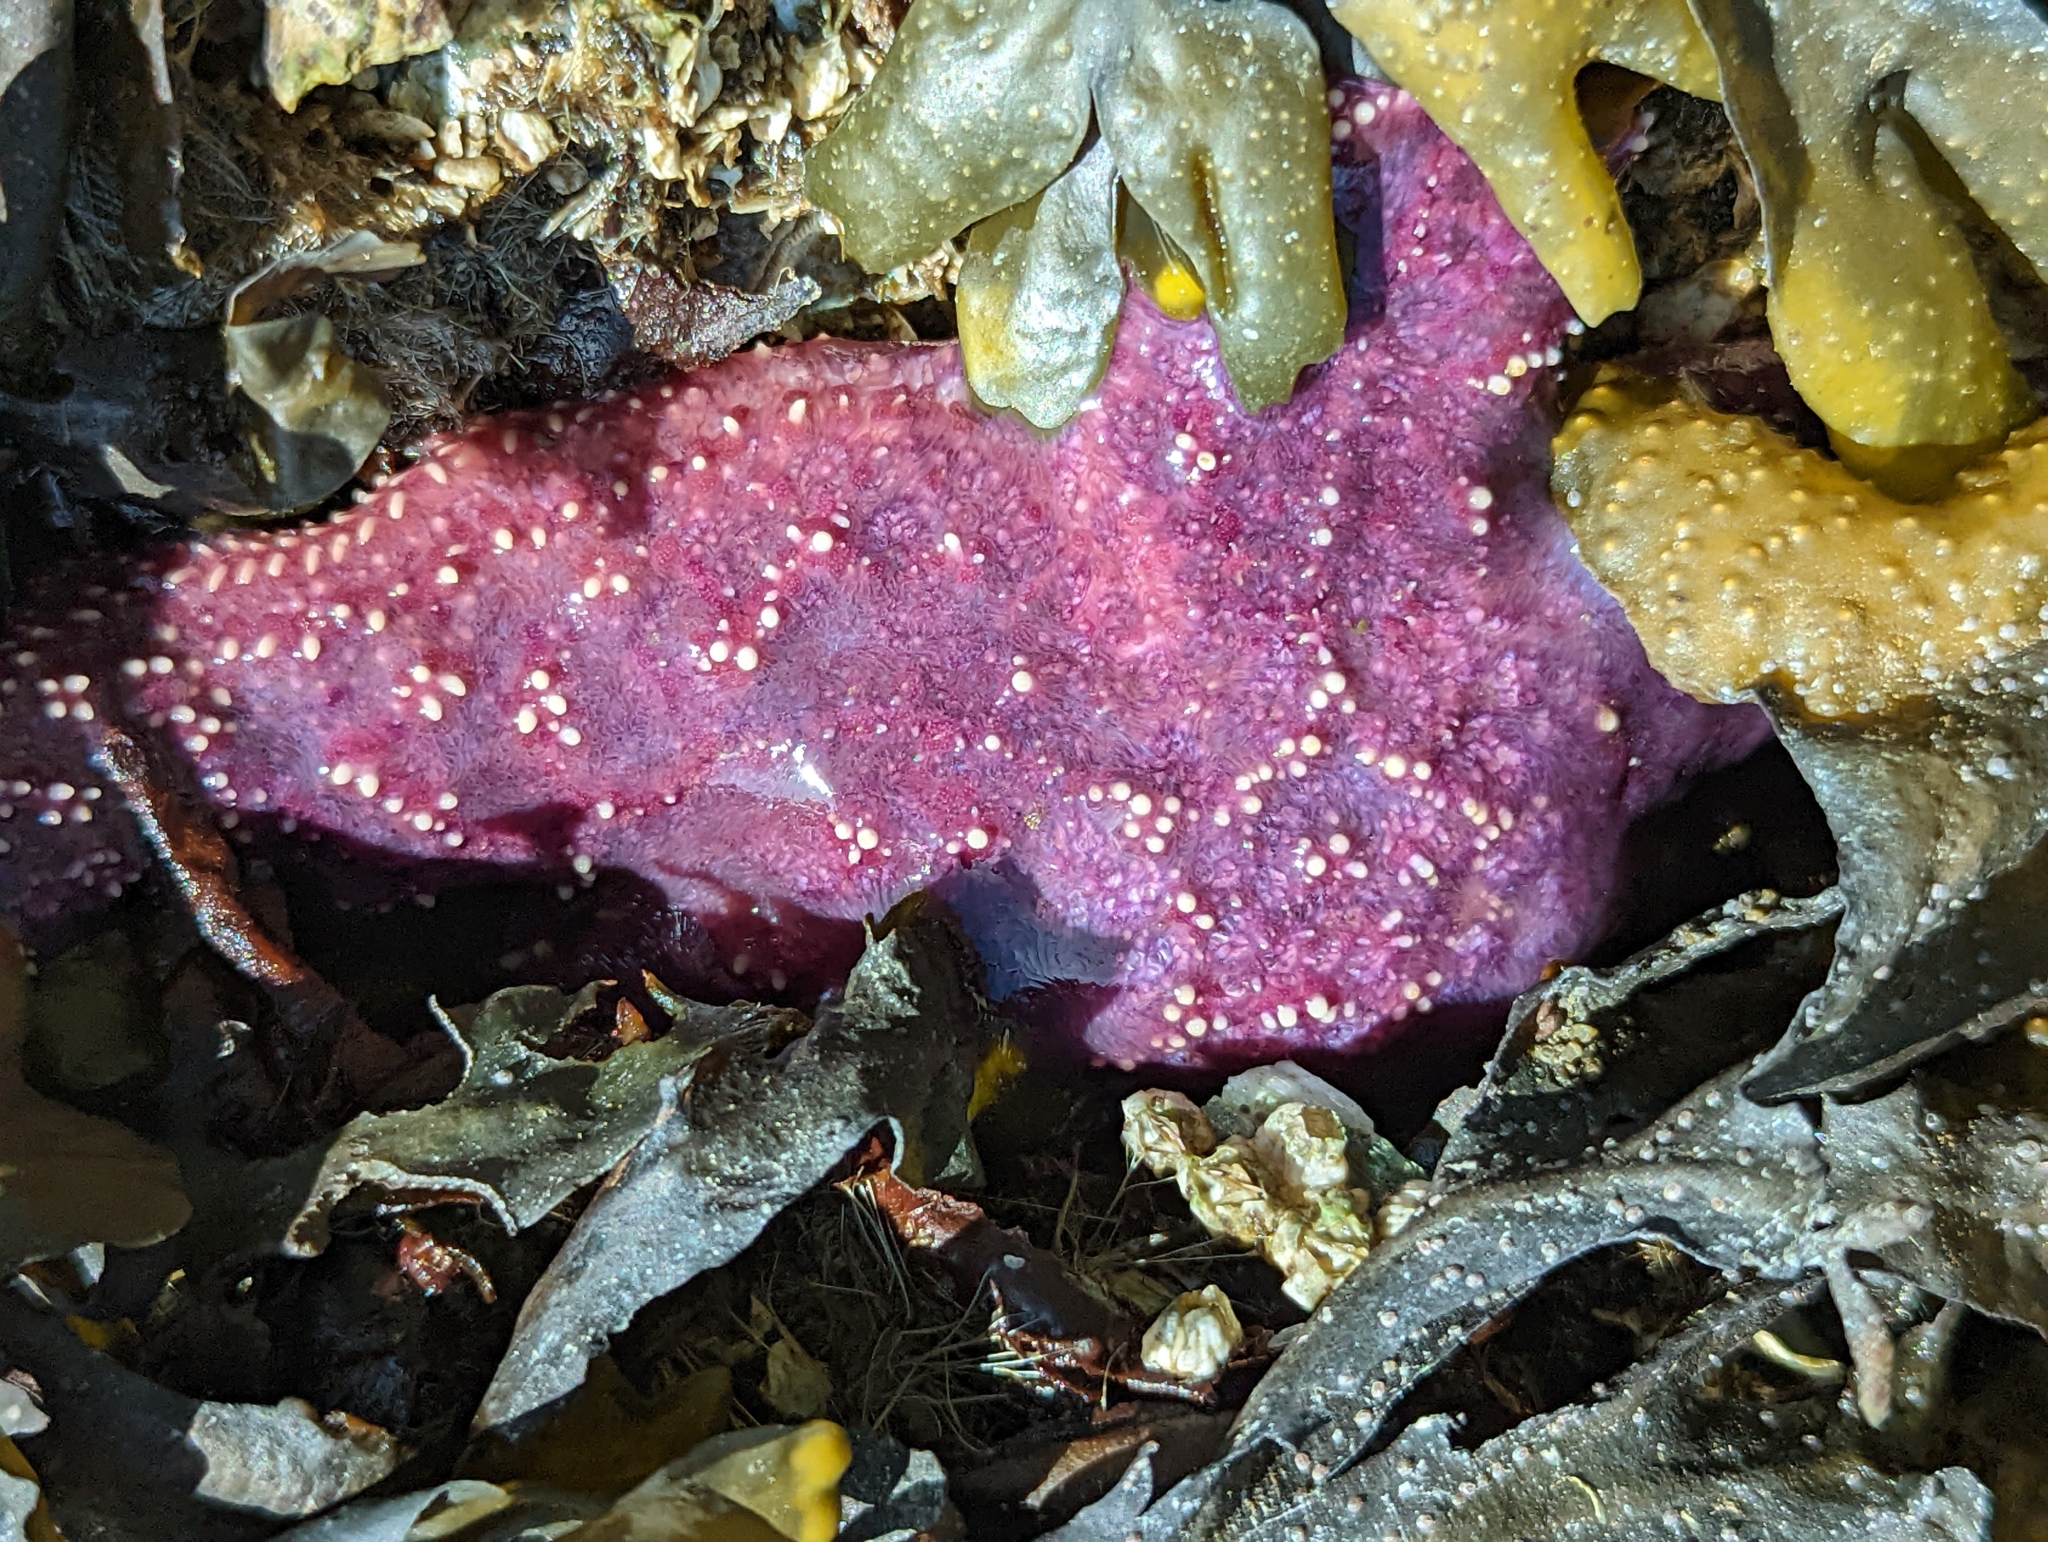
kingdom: Animalia
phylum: Echinodermata
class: Asteroidea
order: Forcipulatida
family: Asteriidae
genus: Pisaster
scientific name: Pisaster ochraceus
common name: Ochre stars
